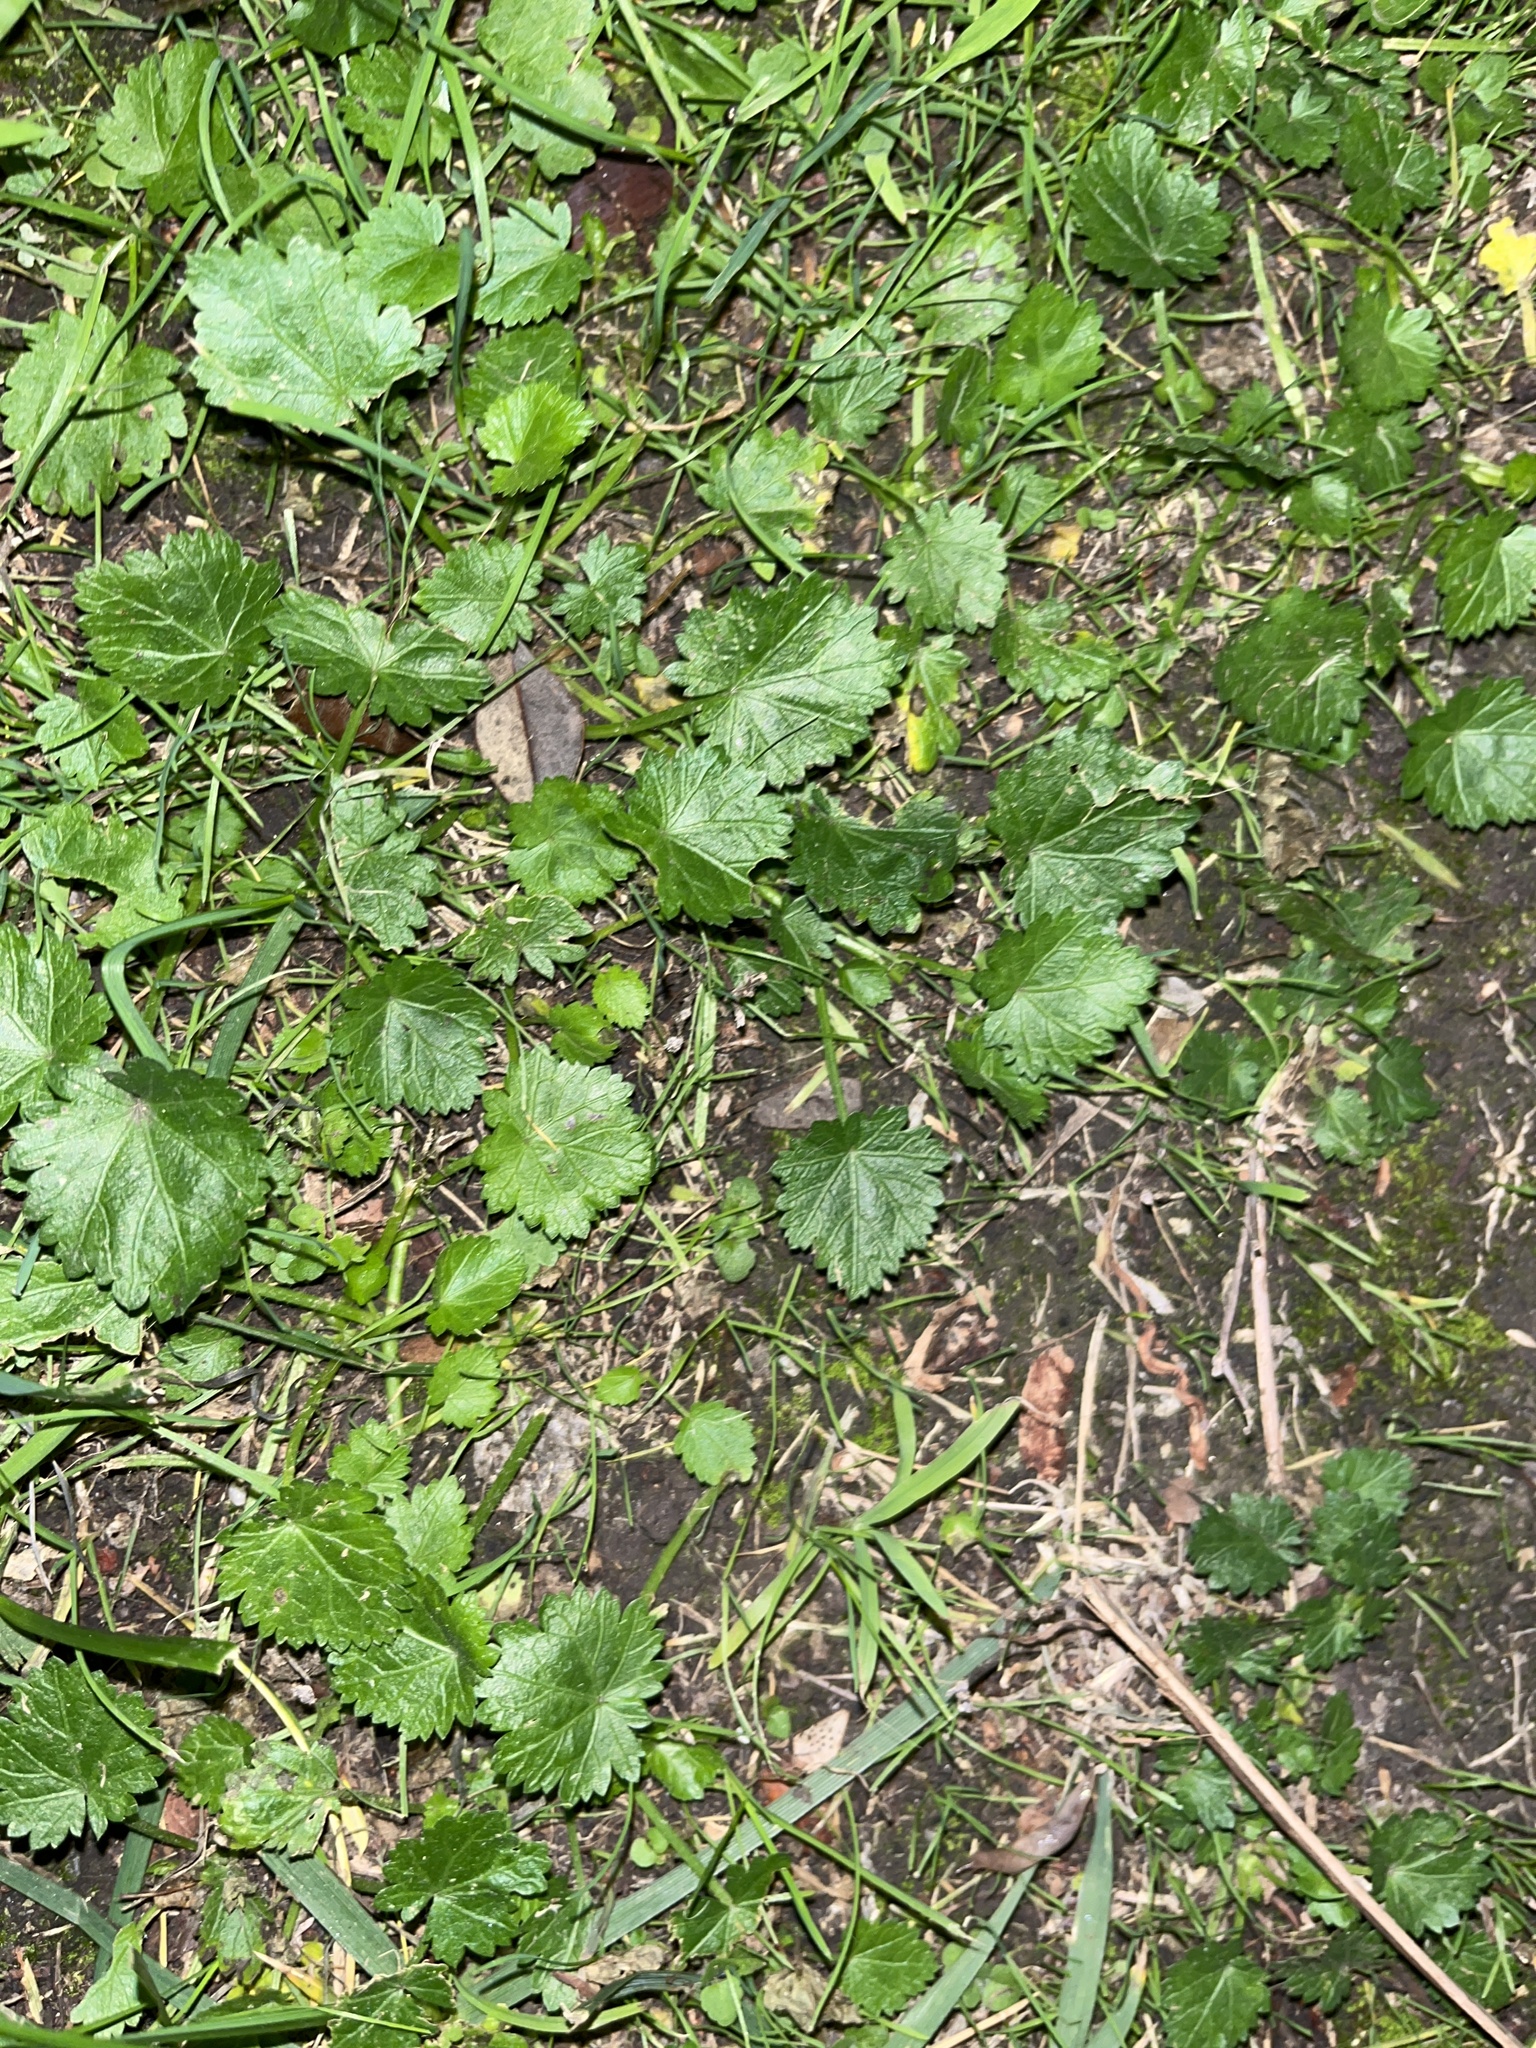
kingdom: Plantae
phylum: Tracheophyta
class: Magnoliopsida
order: Malvales
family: Malvaceae
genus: Modiola
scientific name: Modiola caroliniana
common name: Carolina bristlemallow
